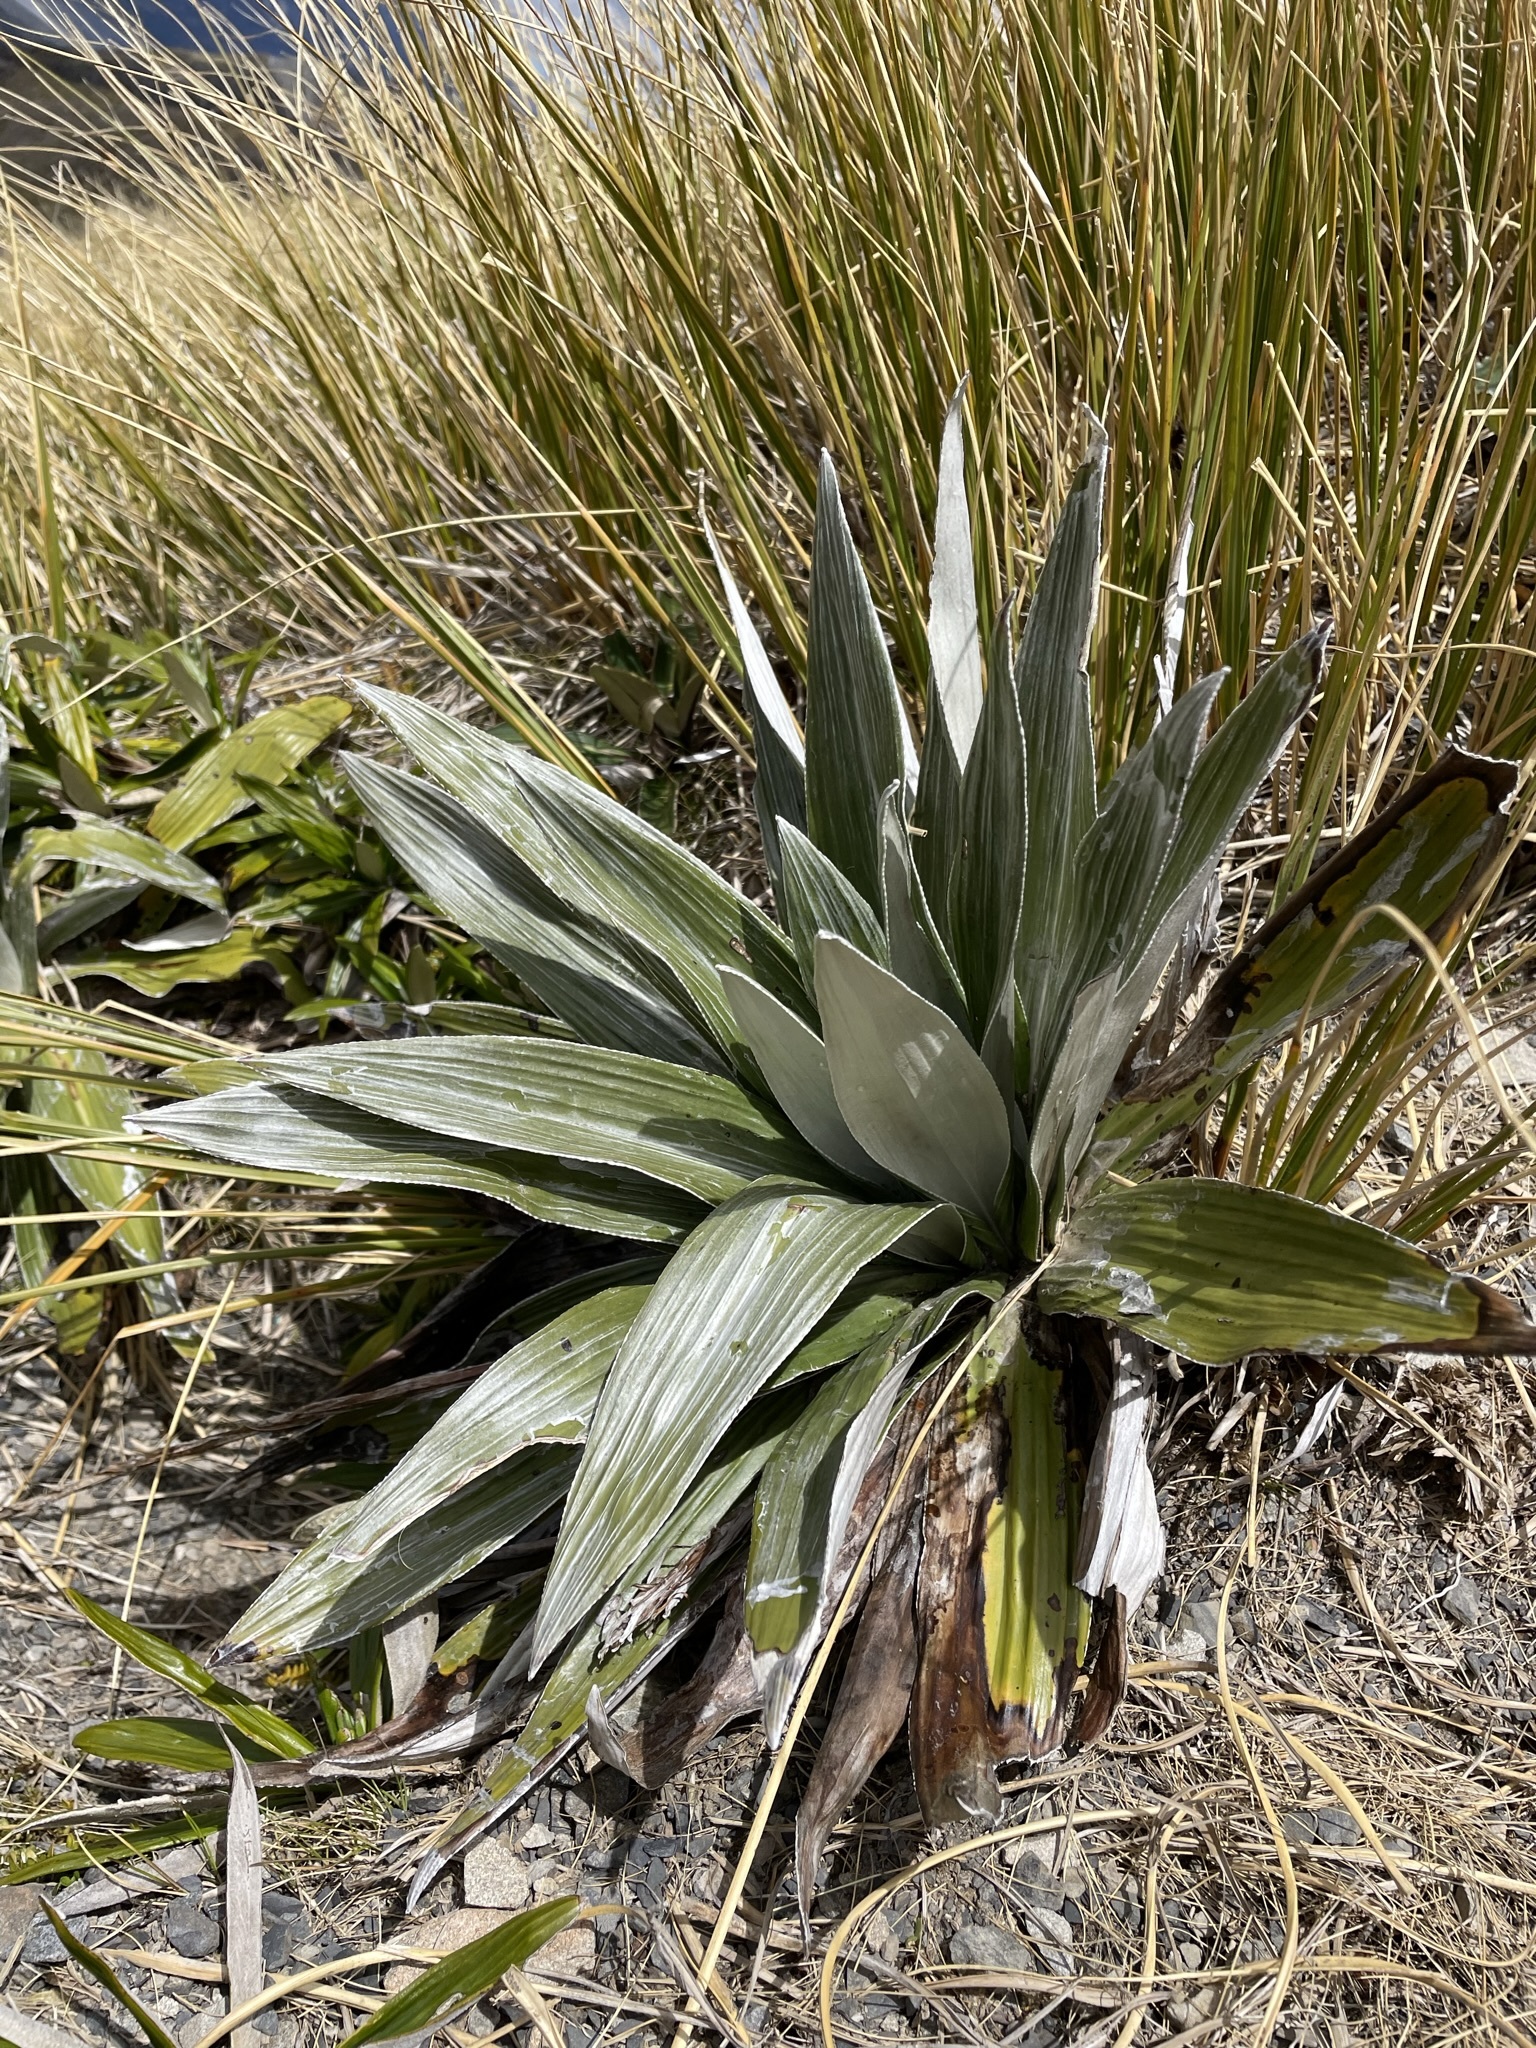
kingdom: Plantae
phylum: Tracheophyta
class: Magnoliopsida
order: Asterales
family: Asteraceae
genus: Celmisia
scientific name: Celmisia semicordata
